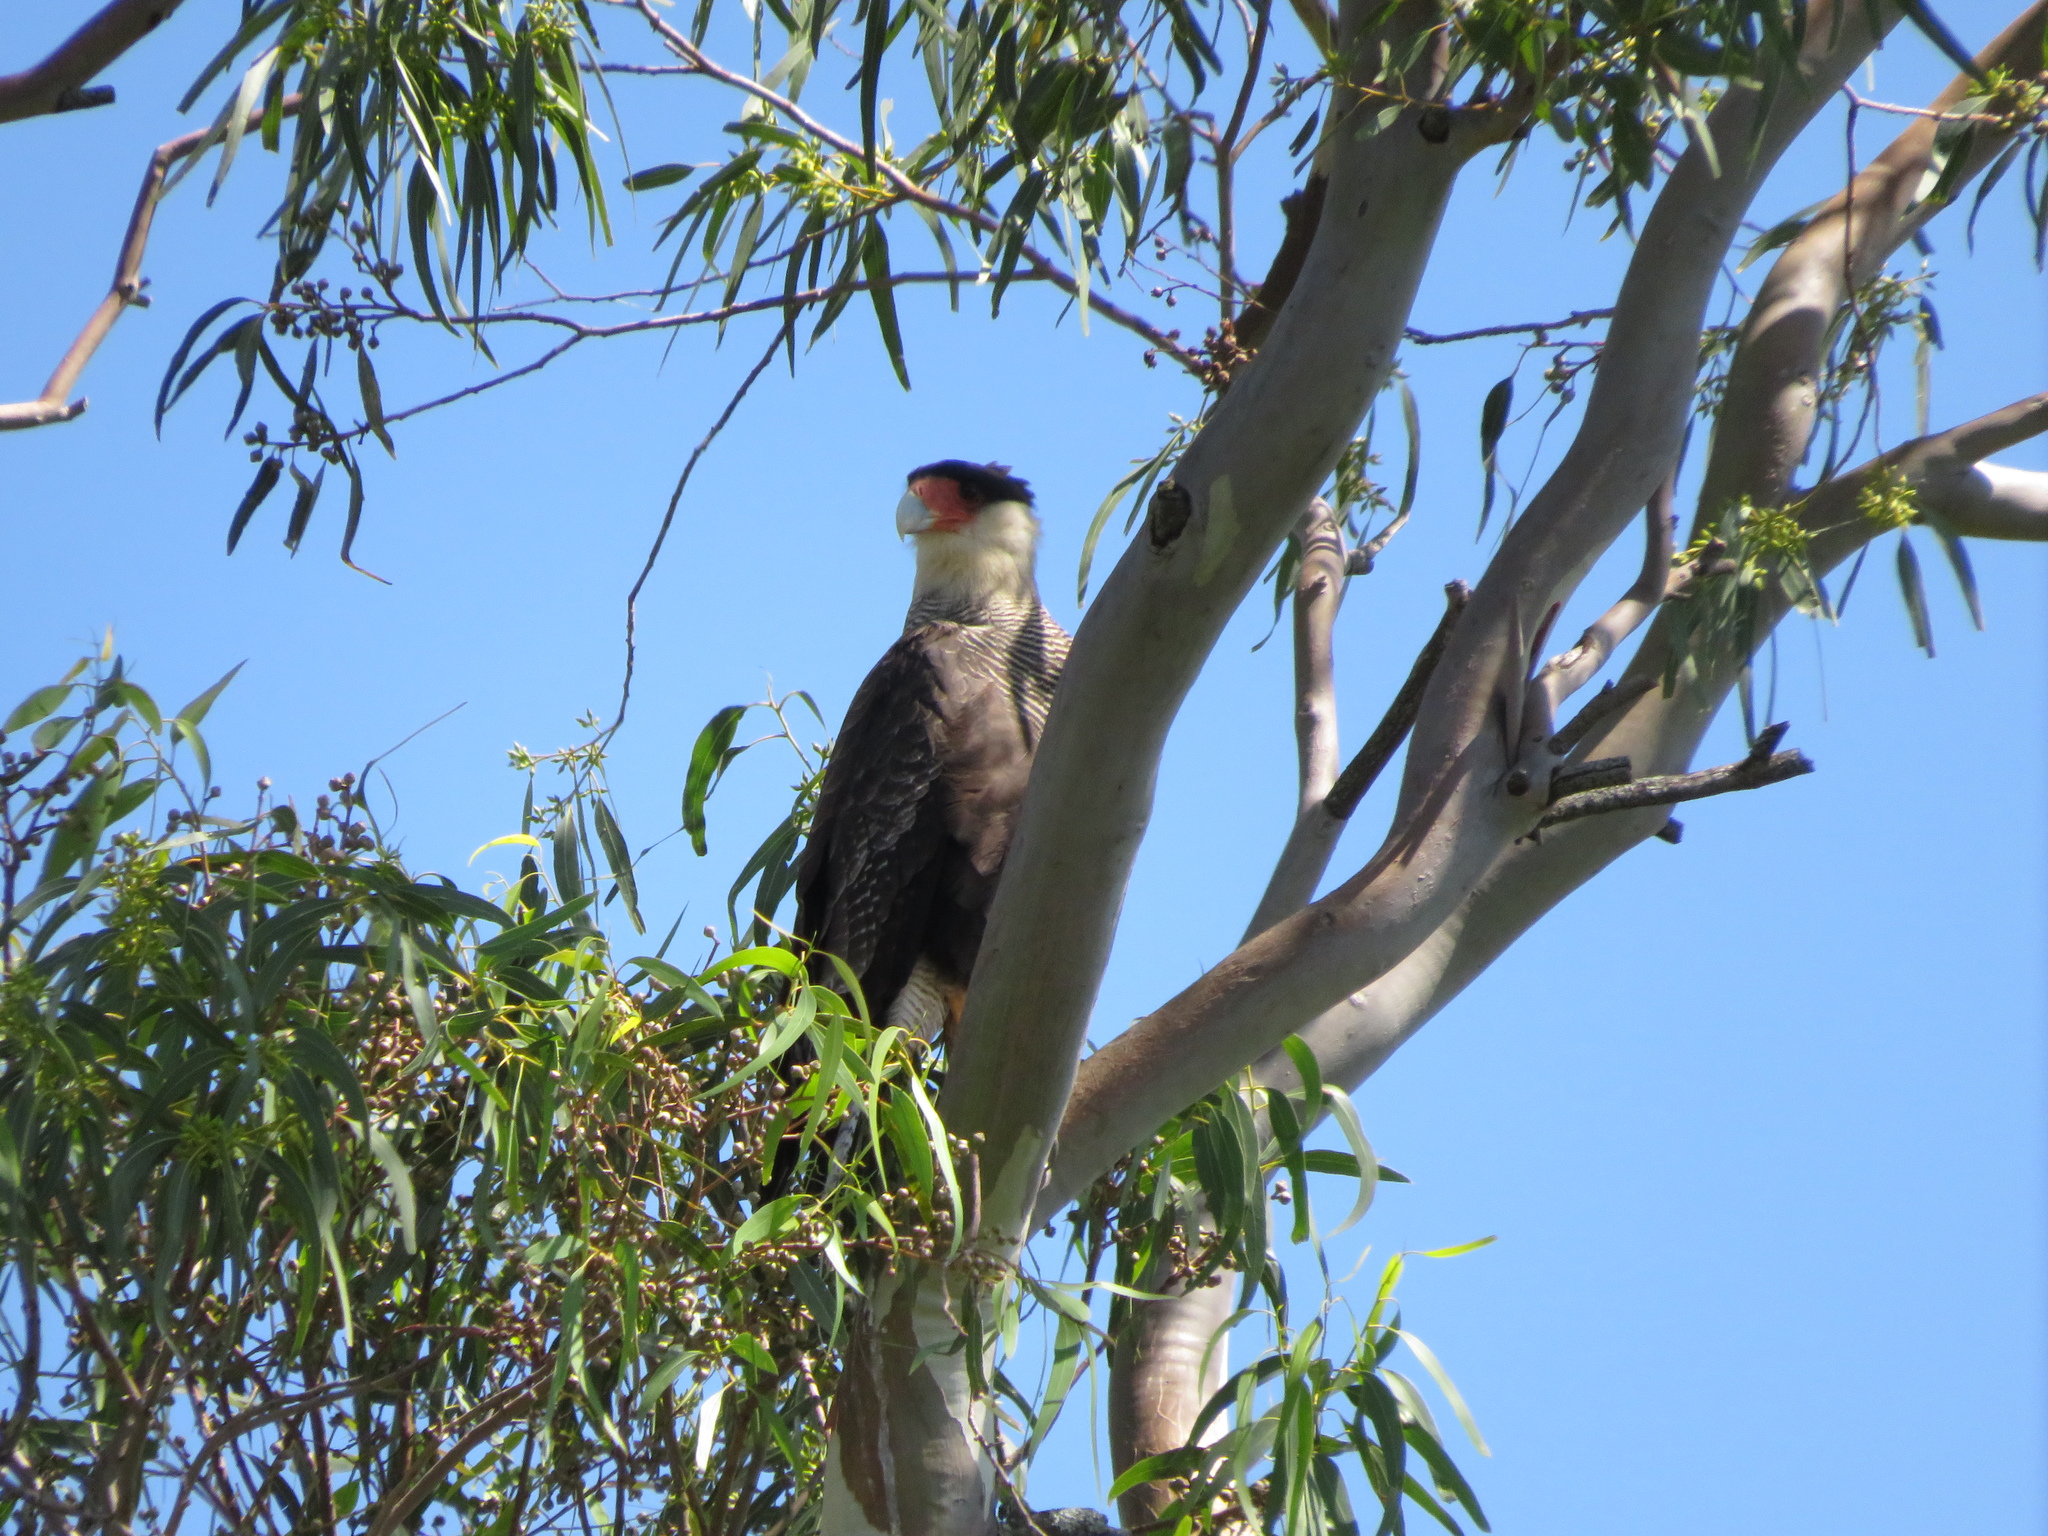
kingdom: Animalia
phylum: Chordata
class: Aves
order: Falconiformes
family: Falconidae
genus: Caracara
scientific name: Caracara plancus
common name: Southern caracara
